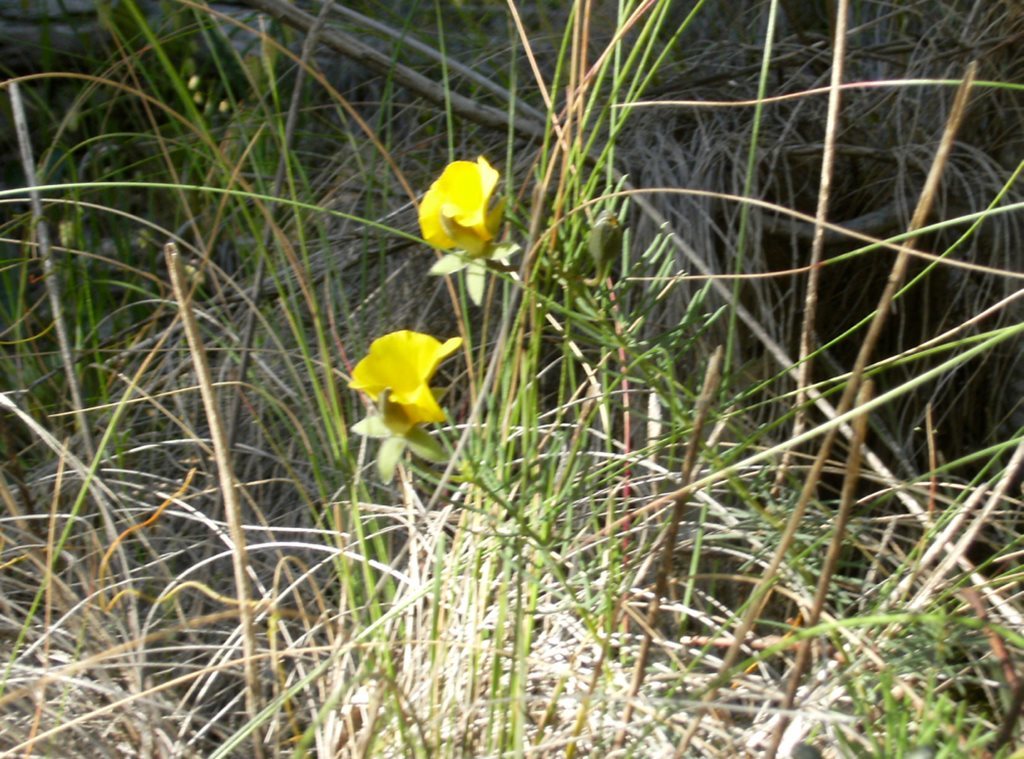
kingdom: Plantae
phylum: Tracheophyta
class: Magnoliopsida
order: Fabales
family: Fabaceae
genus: Gompholobium
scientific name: Gompholobium huegelii
